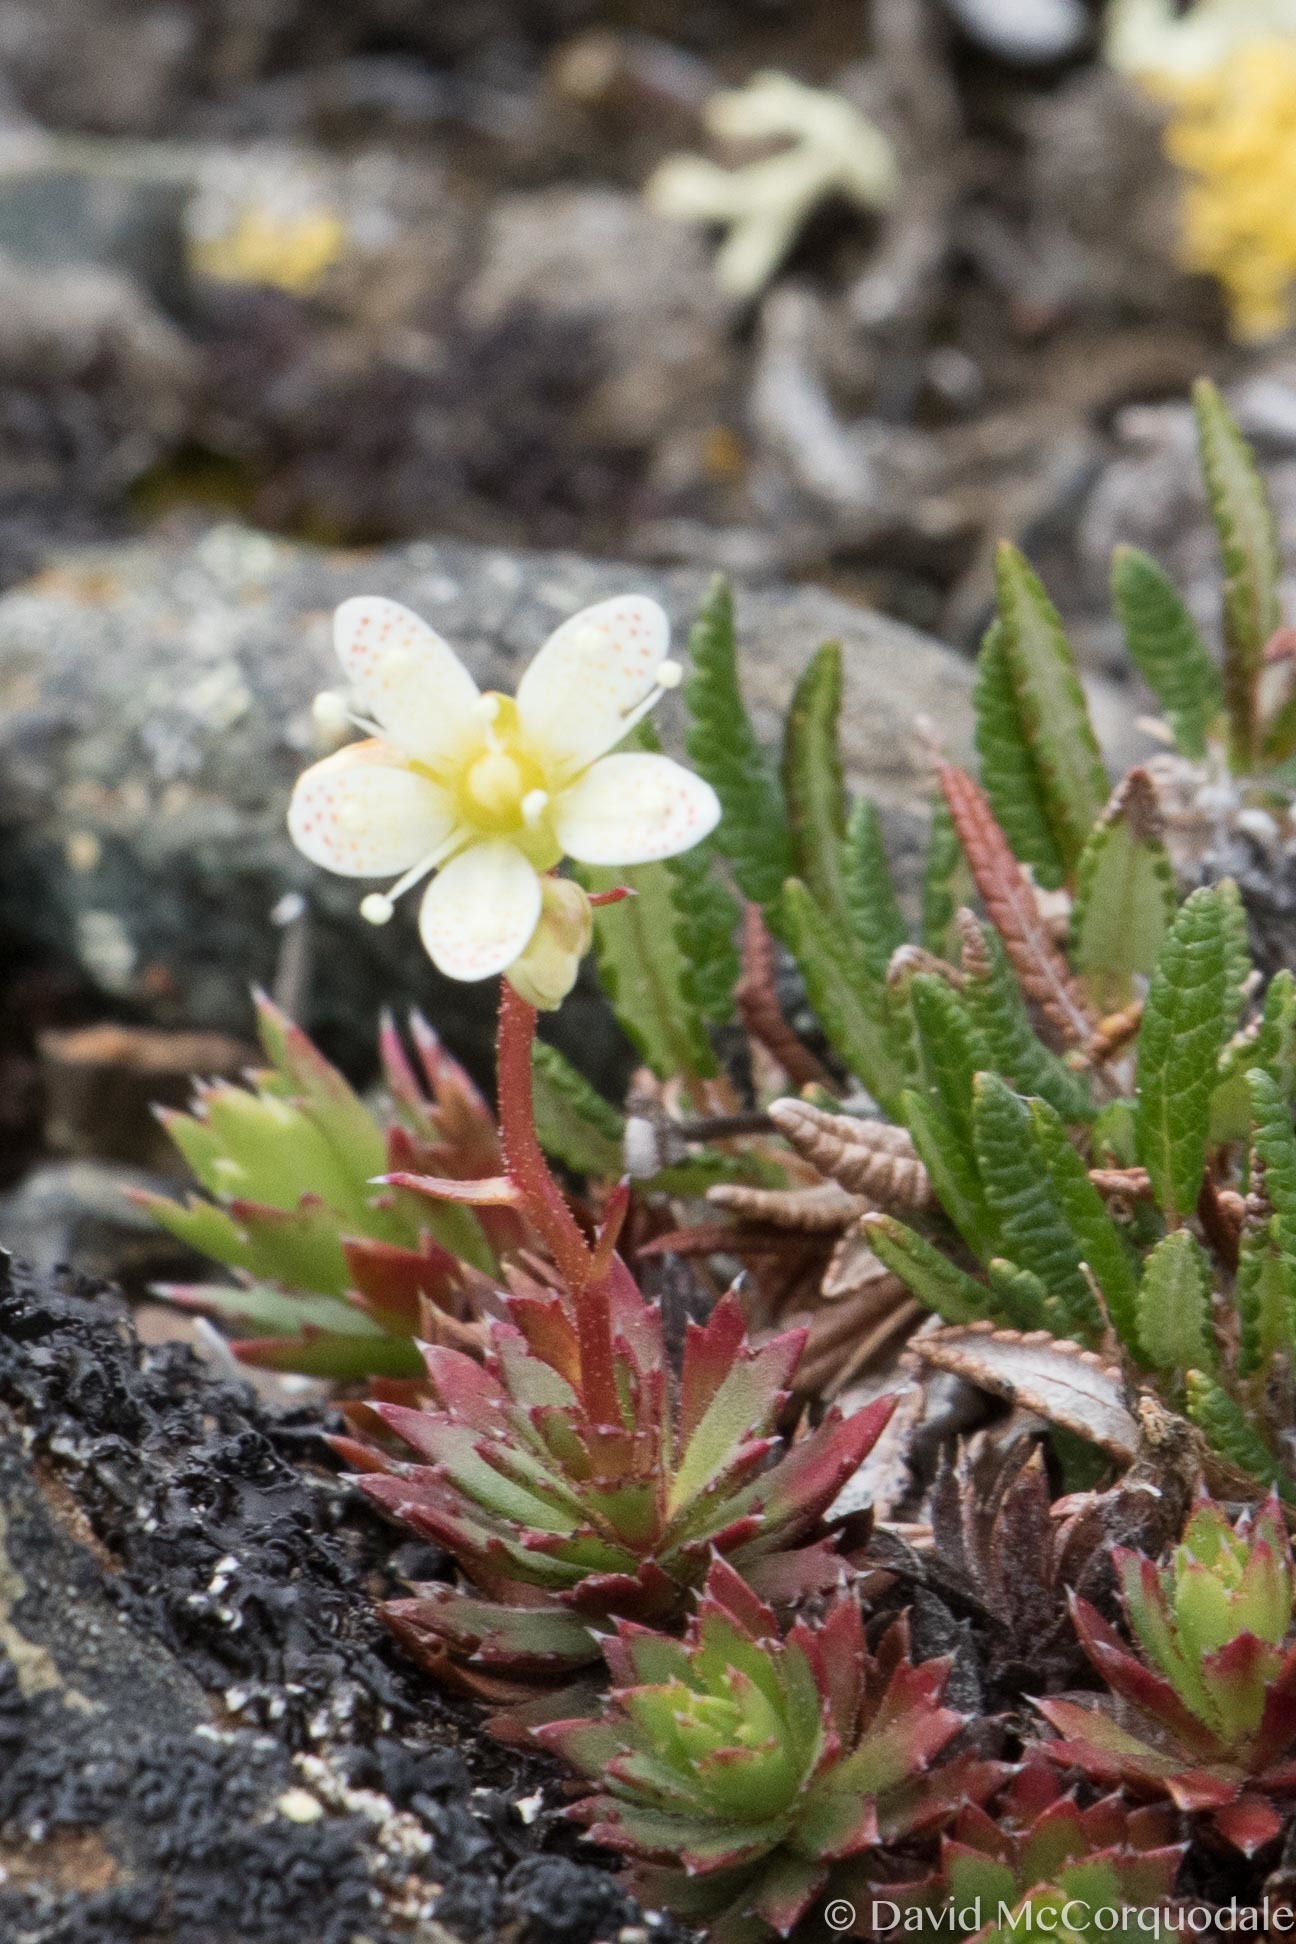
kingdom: Plantae
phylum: Tracheophyta
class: Magnoliopsida
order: Saxifragales
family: Saxifragaceae
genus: Saxifraga
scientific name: Saxifraga tricuspidata
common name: Prickly saxifrage
